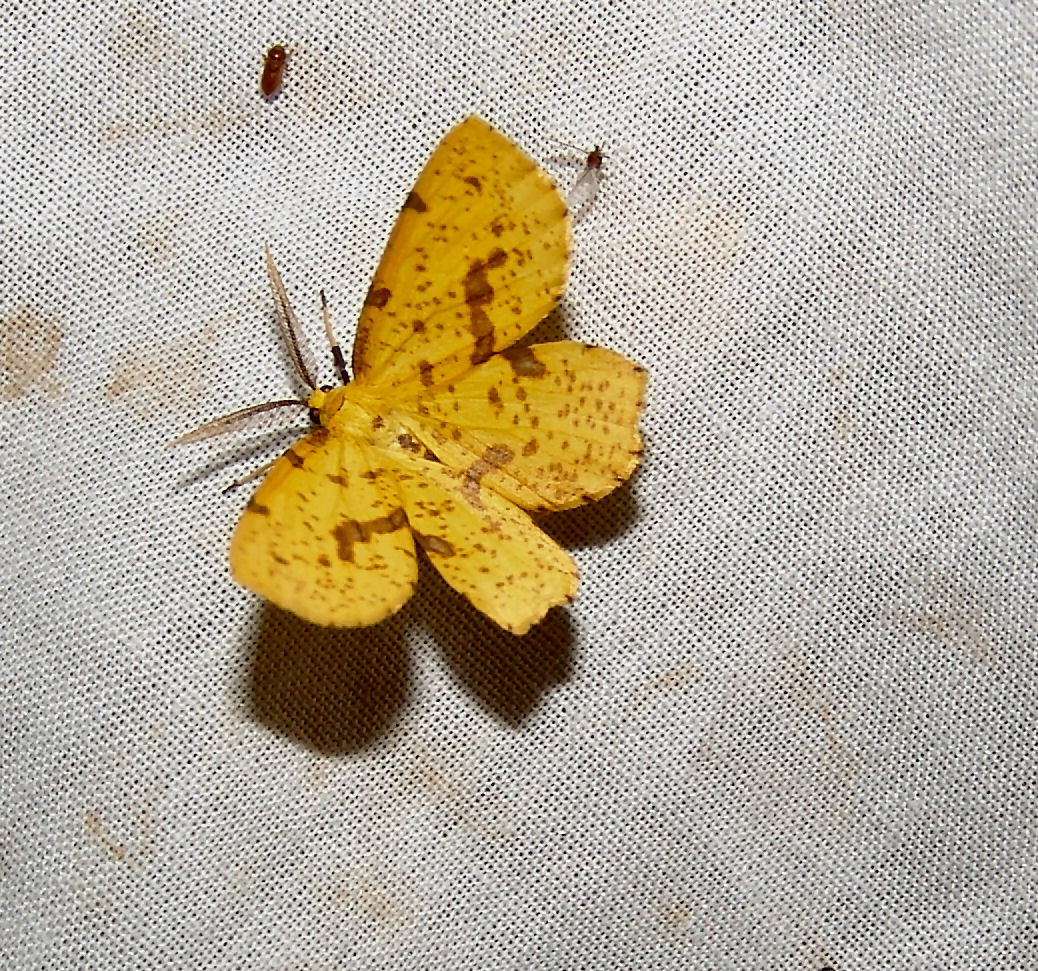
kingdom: Animalia
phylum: Arthropoda
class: Insecta
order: Lepidoptera
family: Geometridae
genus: Xanthotype
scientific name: Xanthotype
